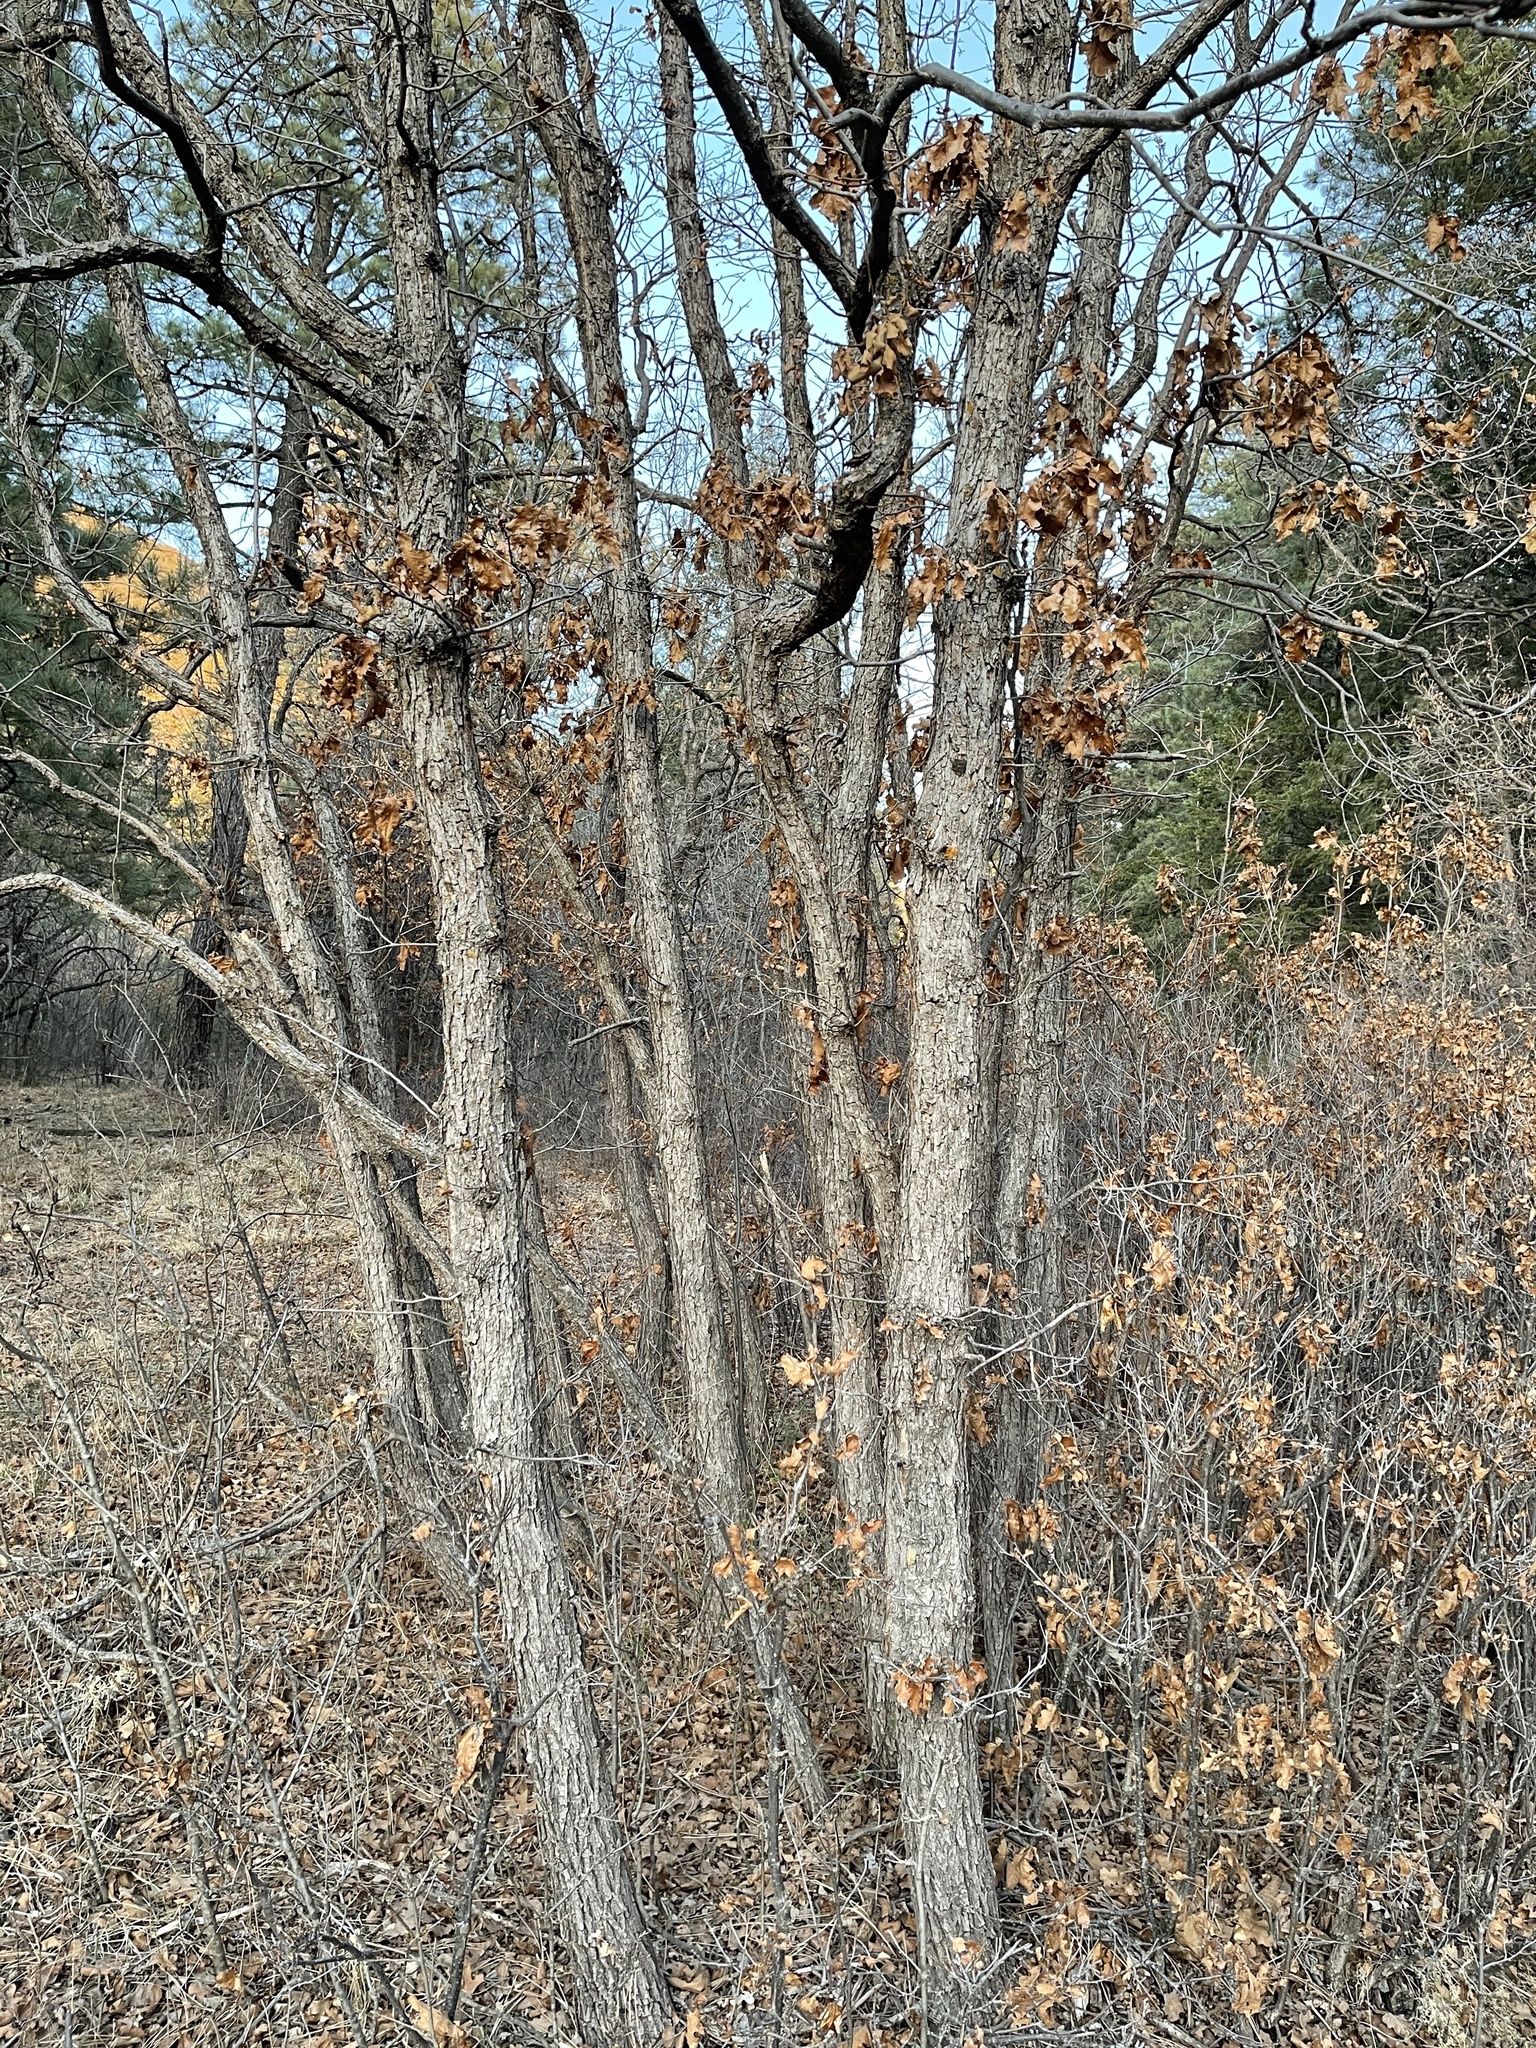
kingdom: Plantae
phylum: Tracheophyta
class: Magnoliopsida
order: Fagales
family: Fagaceae
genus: Quercus
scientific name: Quercus gambelii
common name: Gambel oak
